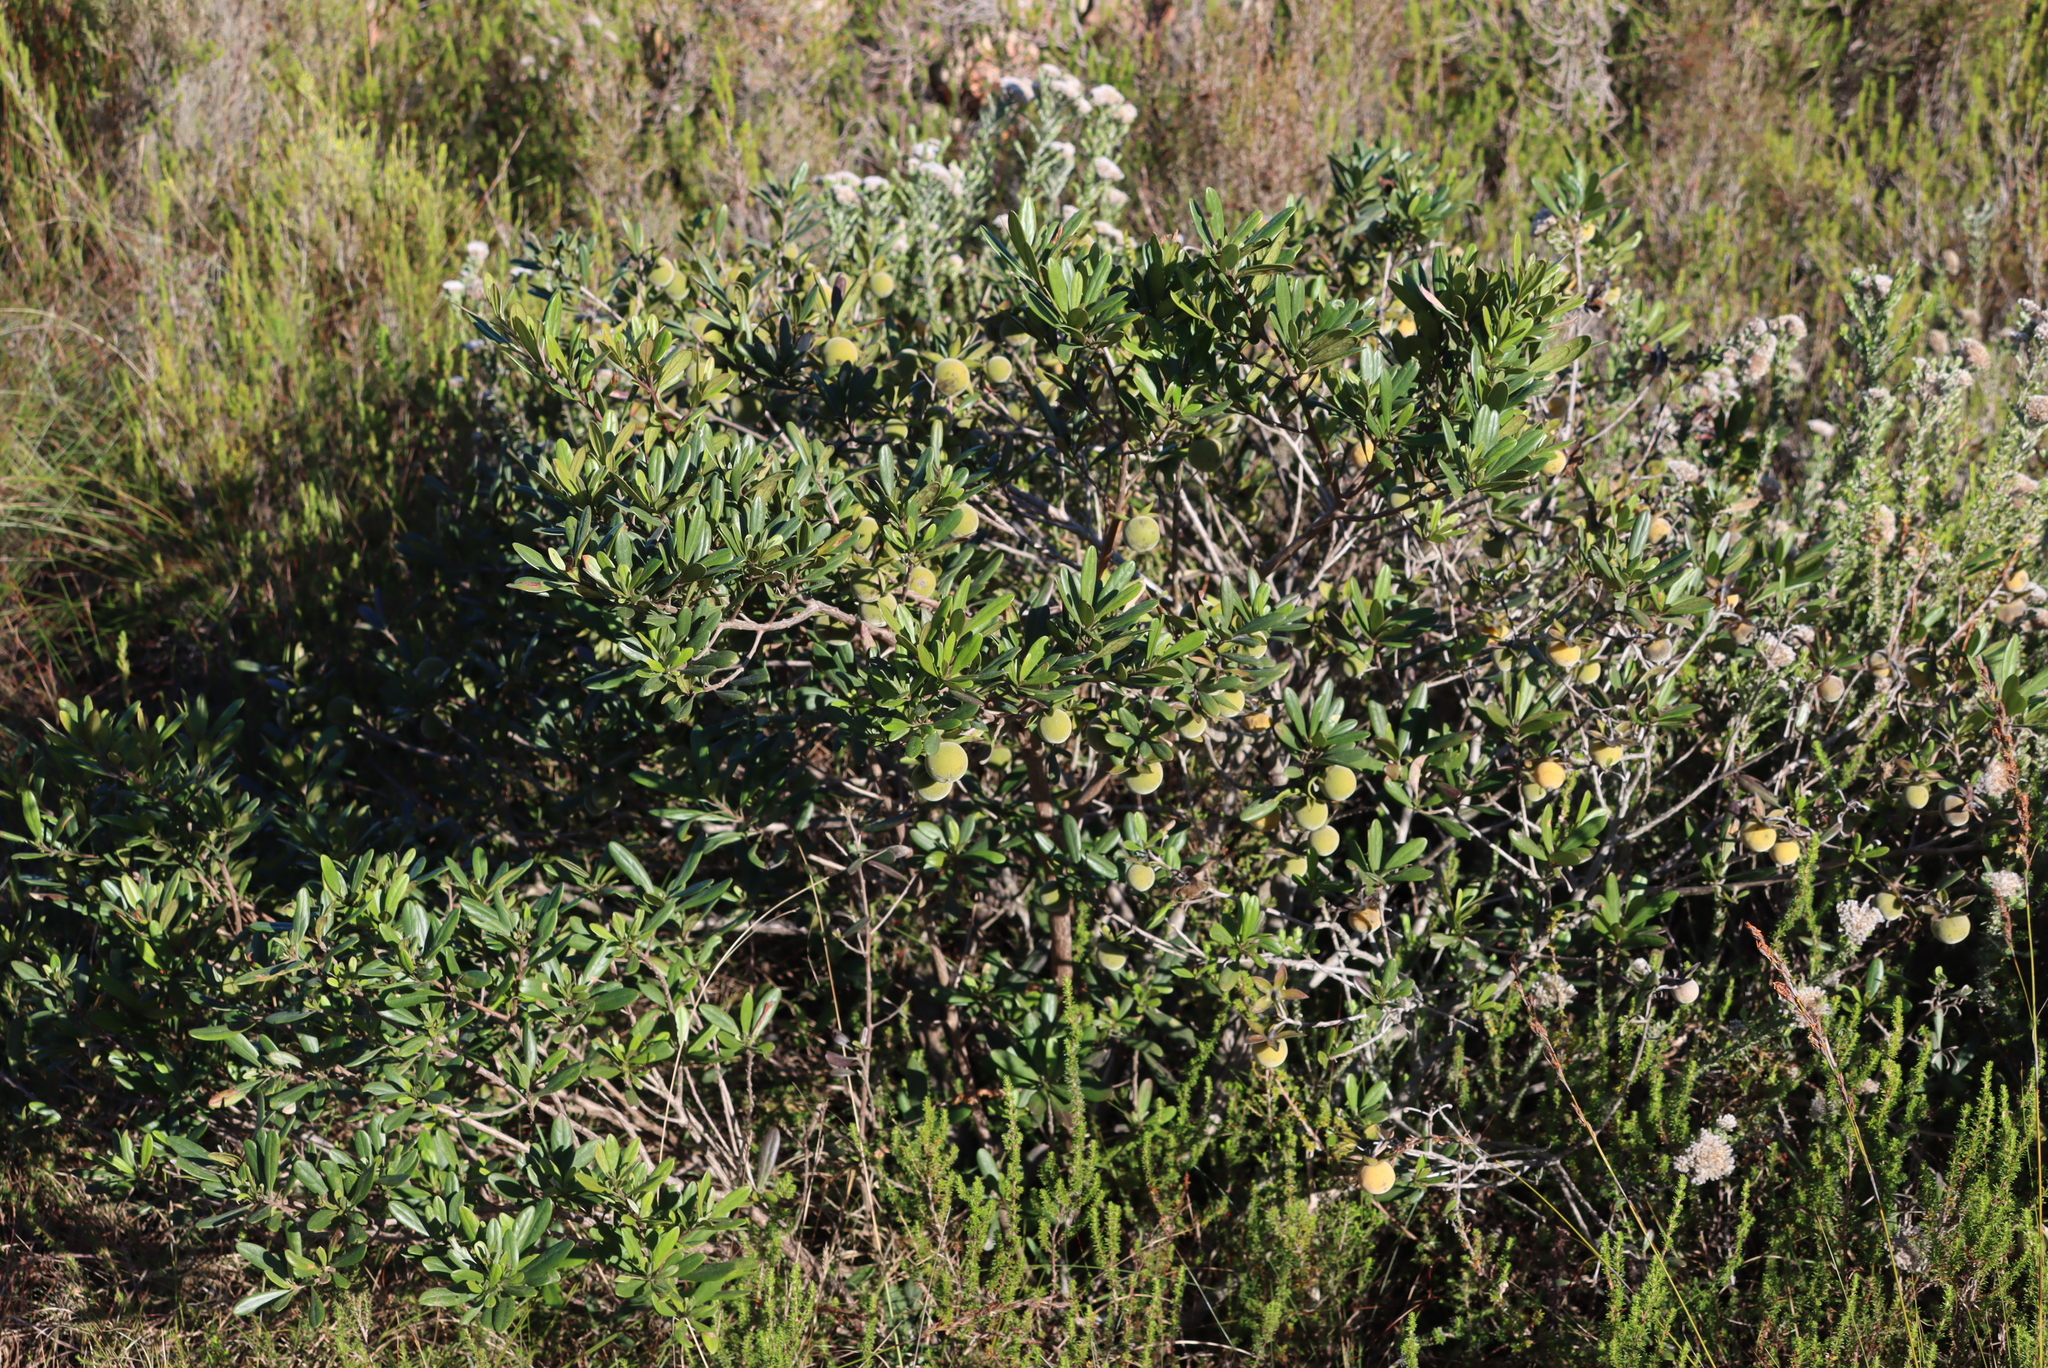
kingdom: Plantae
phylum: Tracheophyta
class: Magnoliopsida
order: Ericales
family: Ebenaceae
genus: Diospyros
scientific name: Diospyros dichrophylla
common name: Common star-apple
